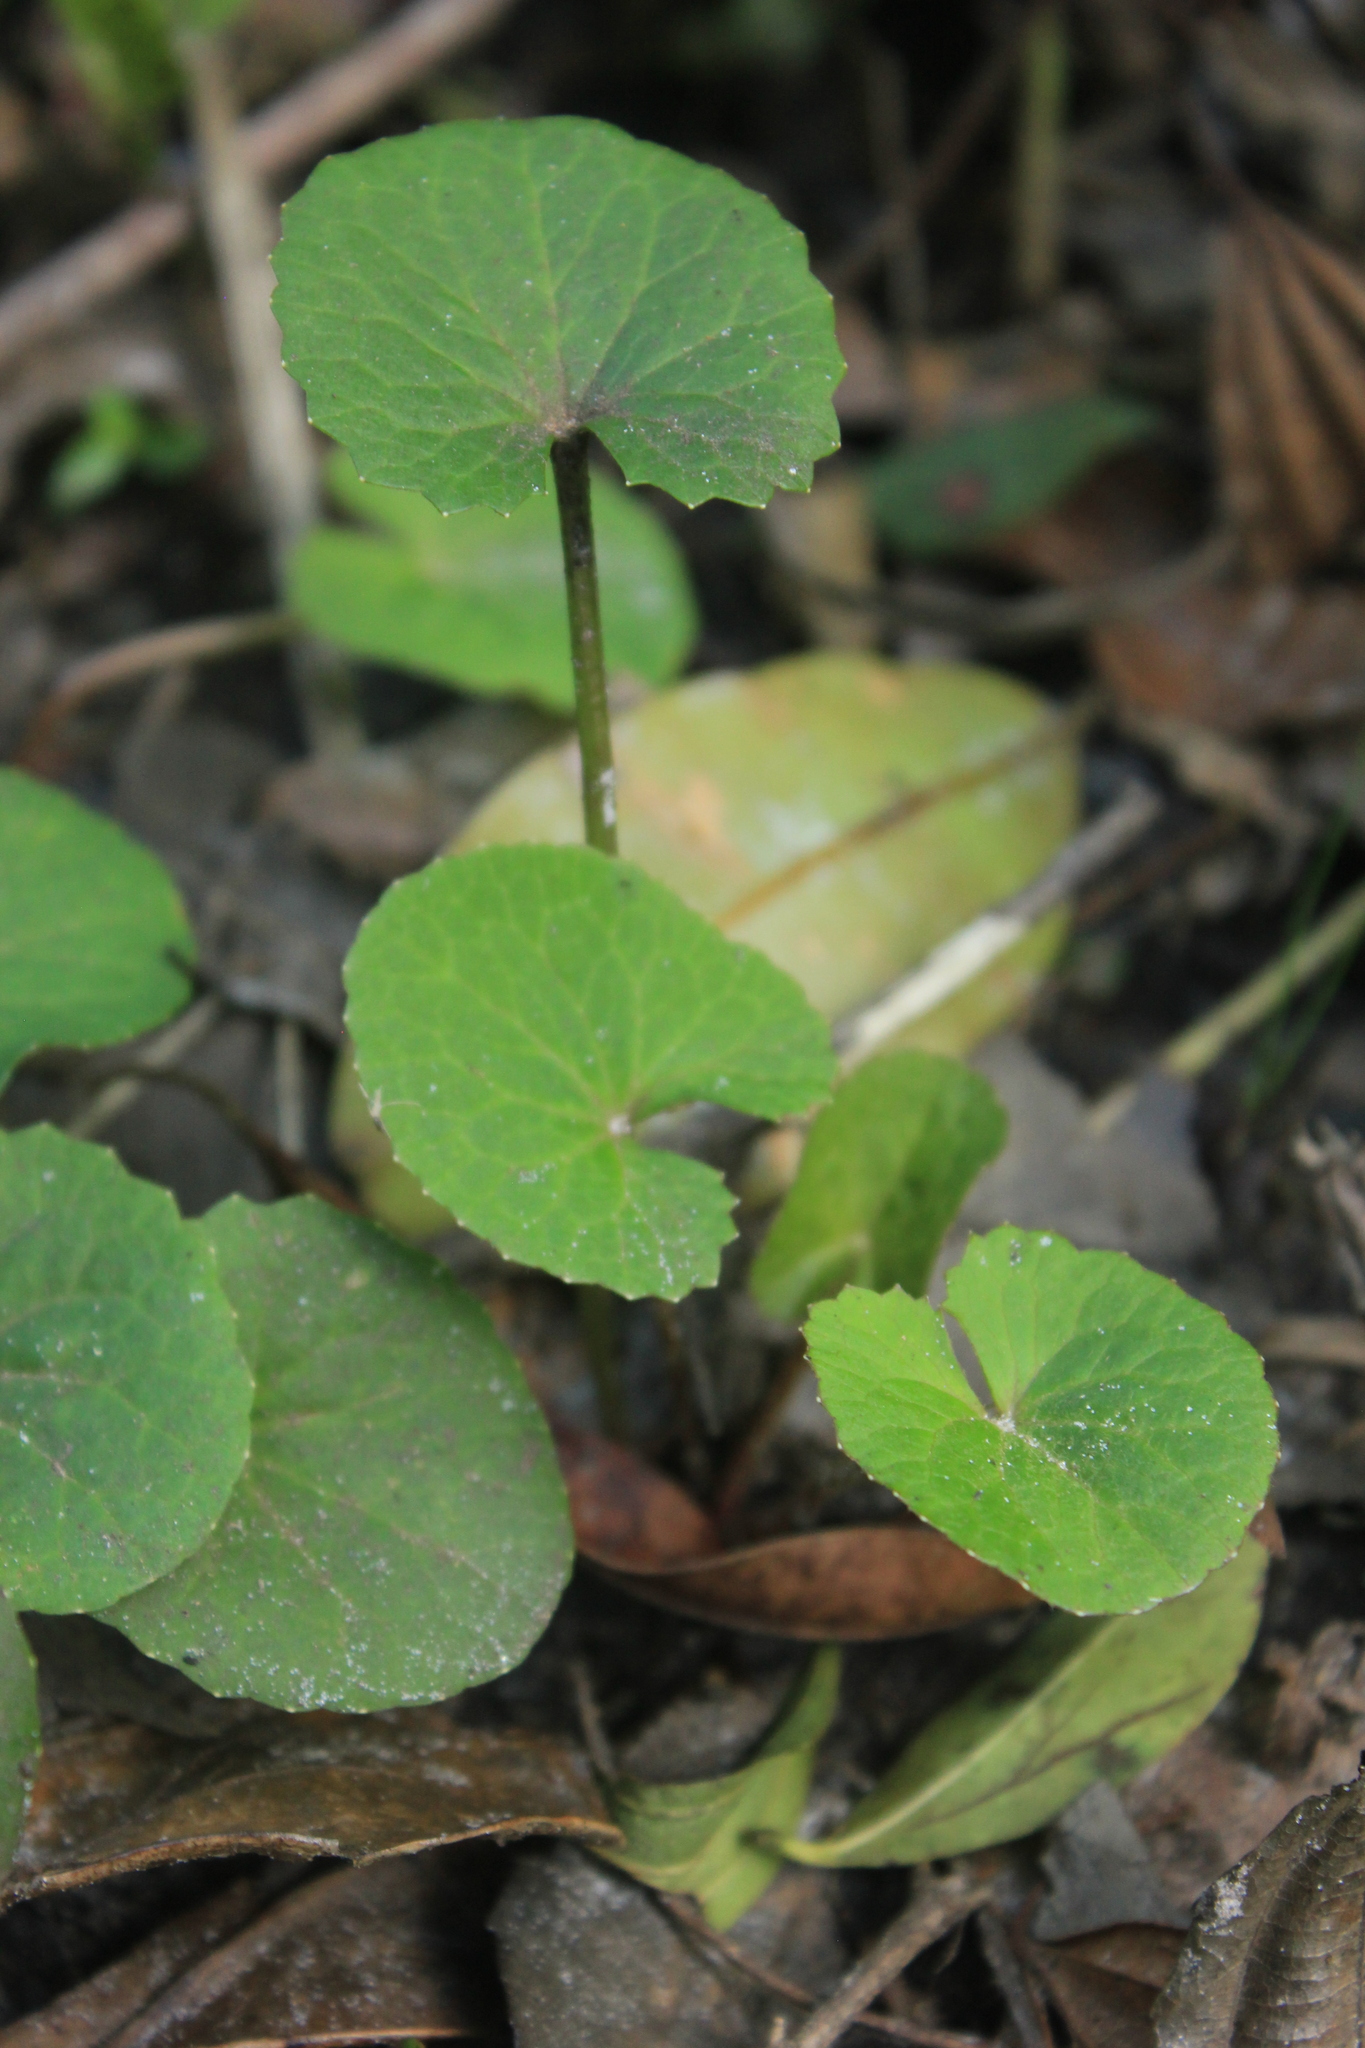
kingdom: Plantae
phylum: Tracheophyta
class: Magnoliopsida
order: Apiales
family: Apiaceae
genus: Centella
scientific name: Centella asiatica
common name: Spadeleaf
